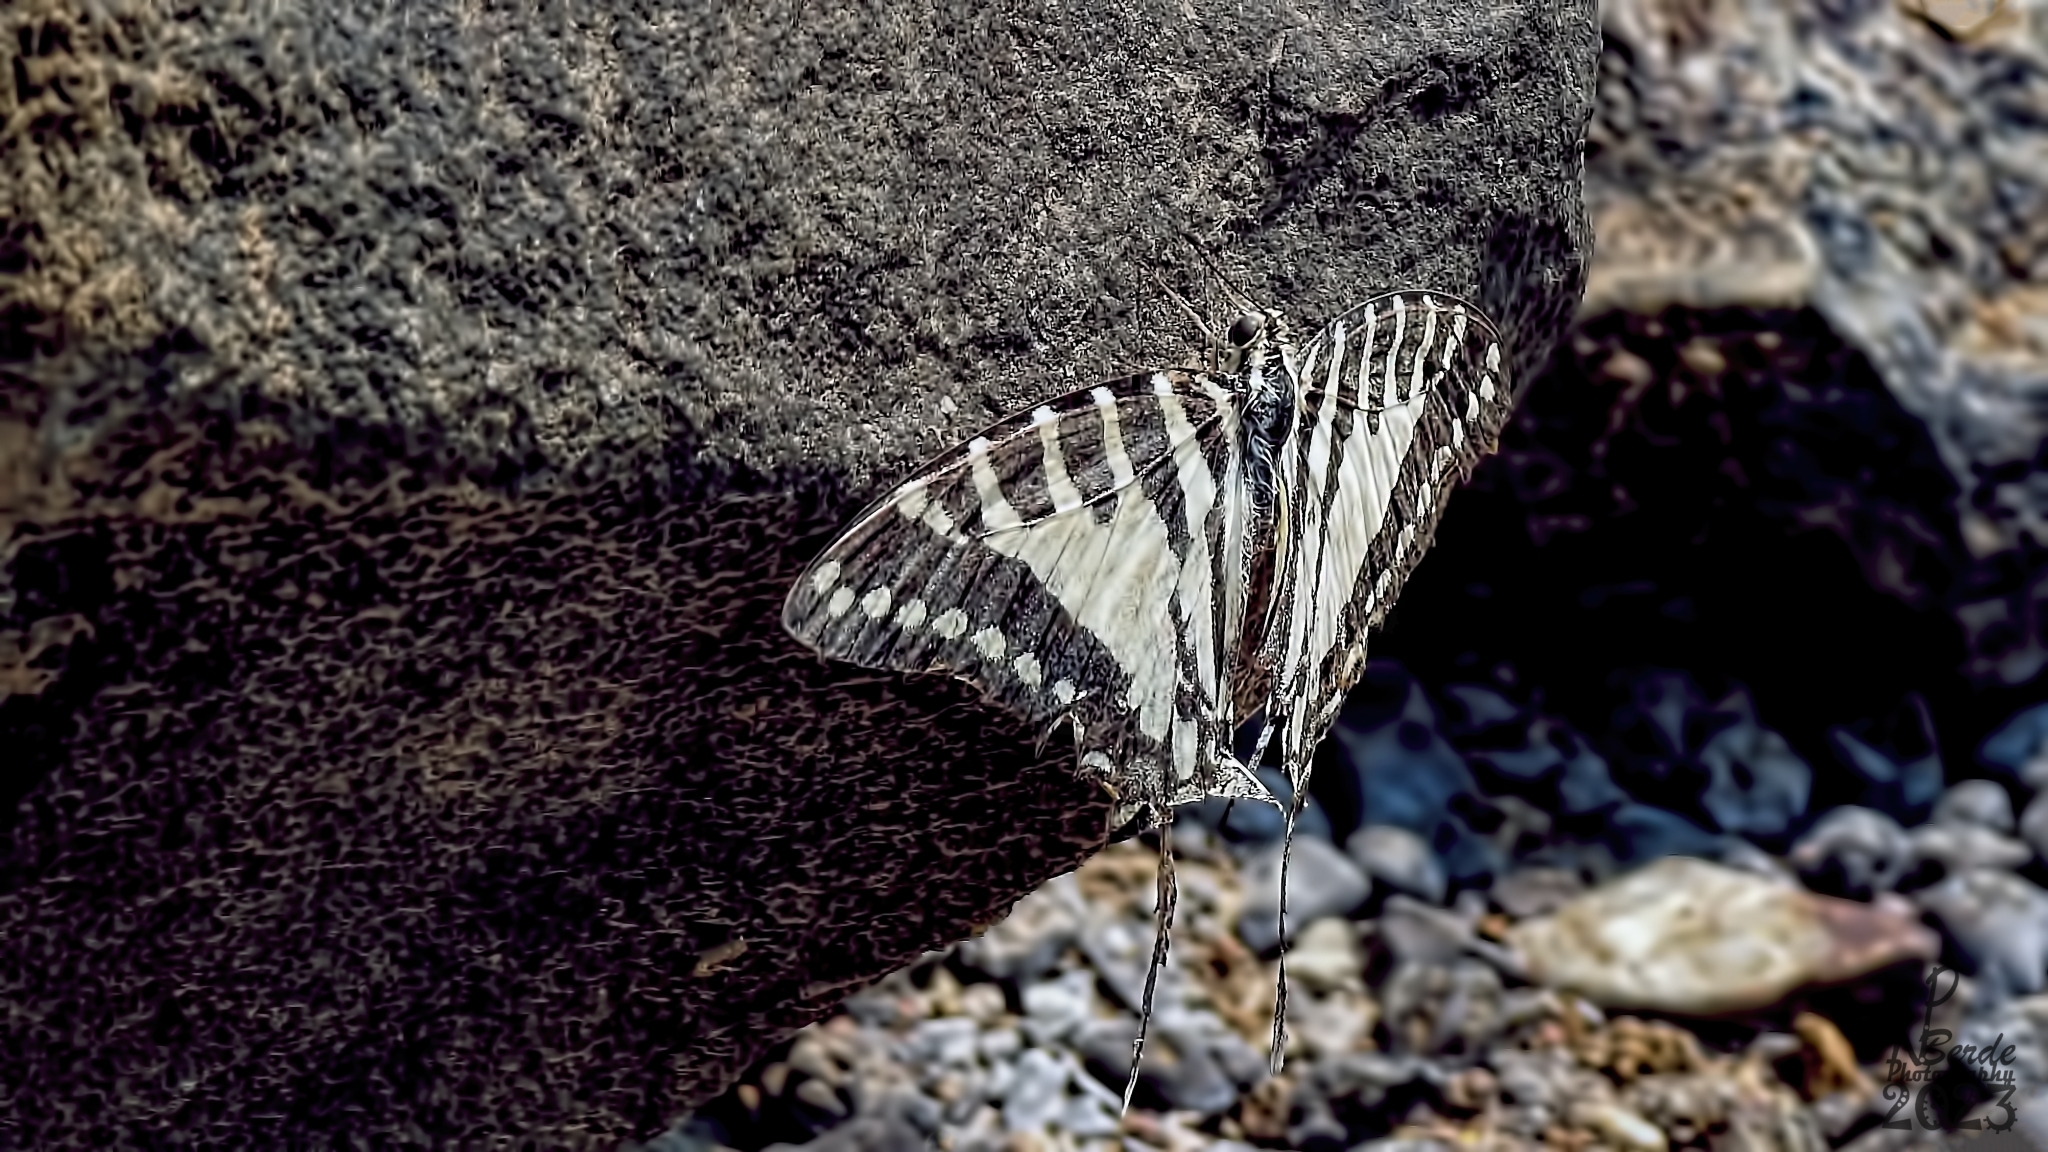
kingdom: Animalia
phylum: Arthropoda
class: Insecta
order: Lepidoptera
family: Papilionidae
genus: Graphium
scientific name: Graphium nomius
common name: Spot swordtail
